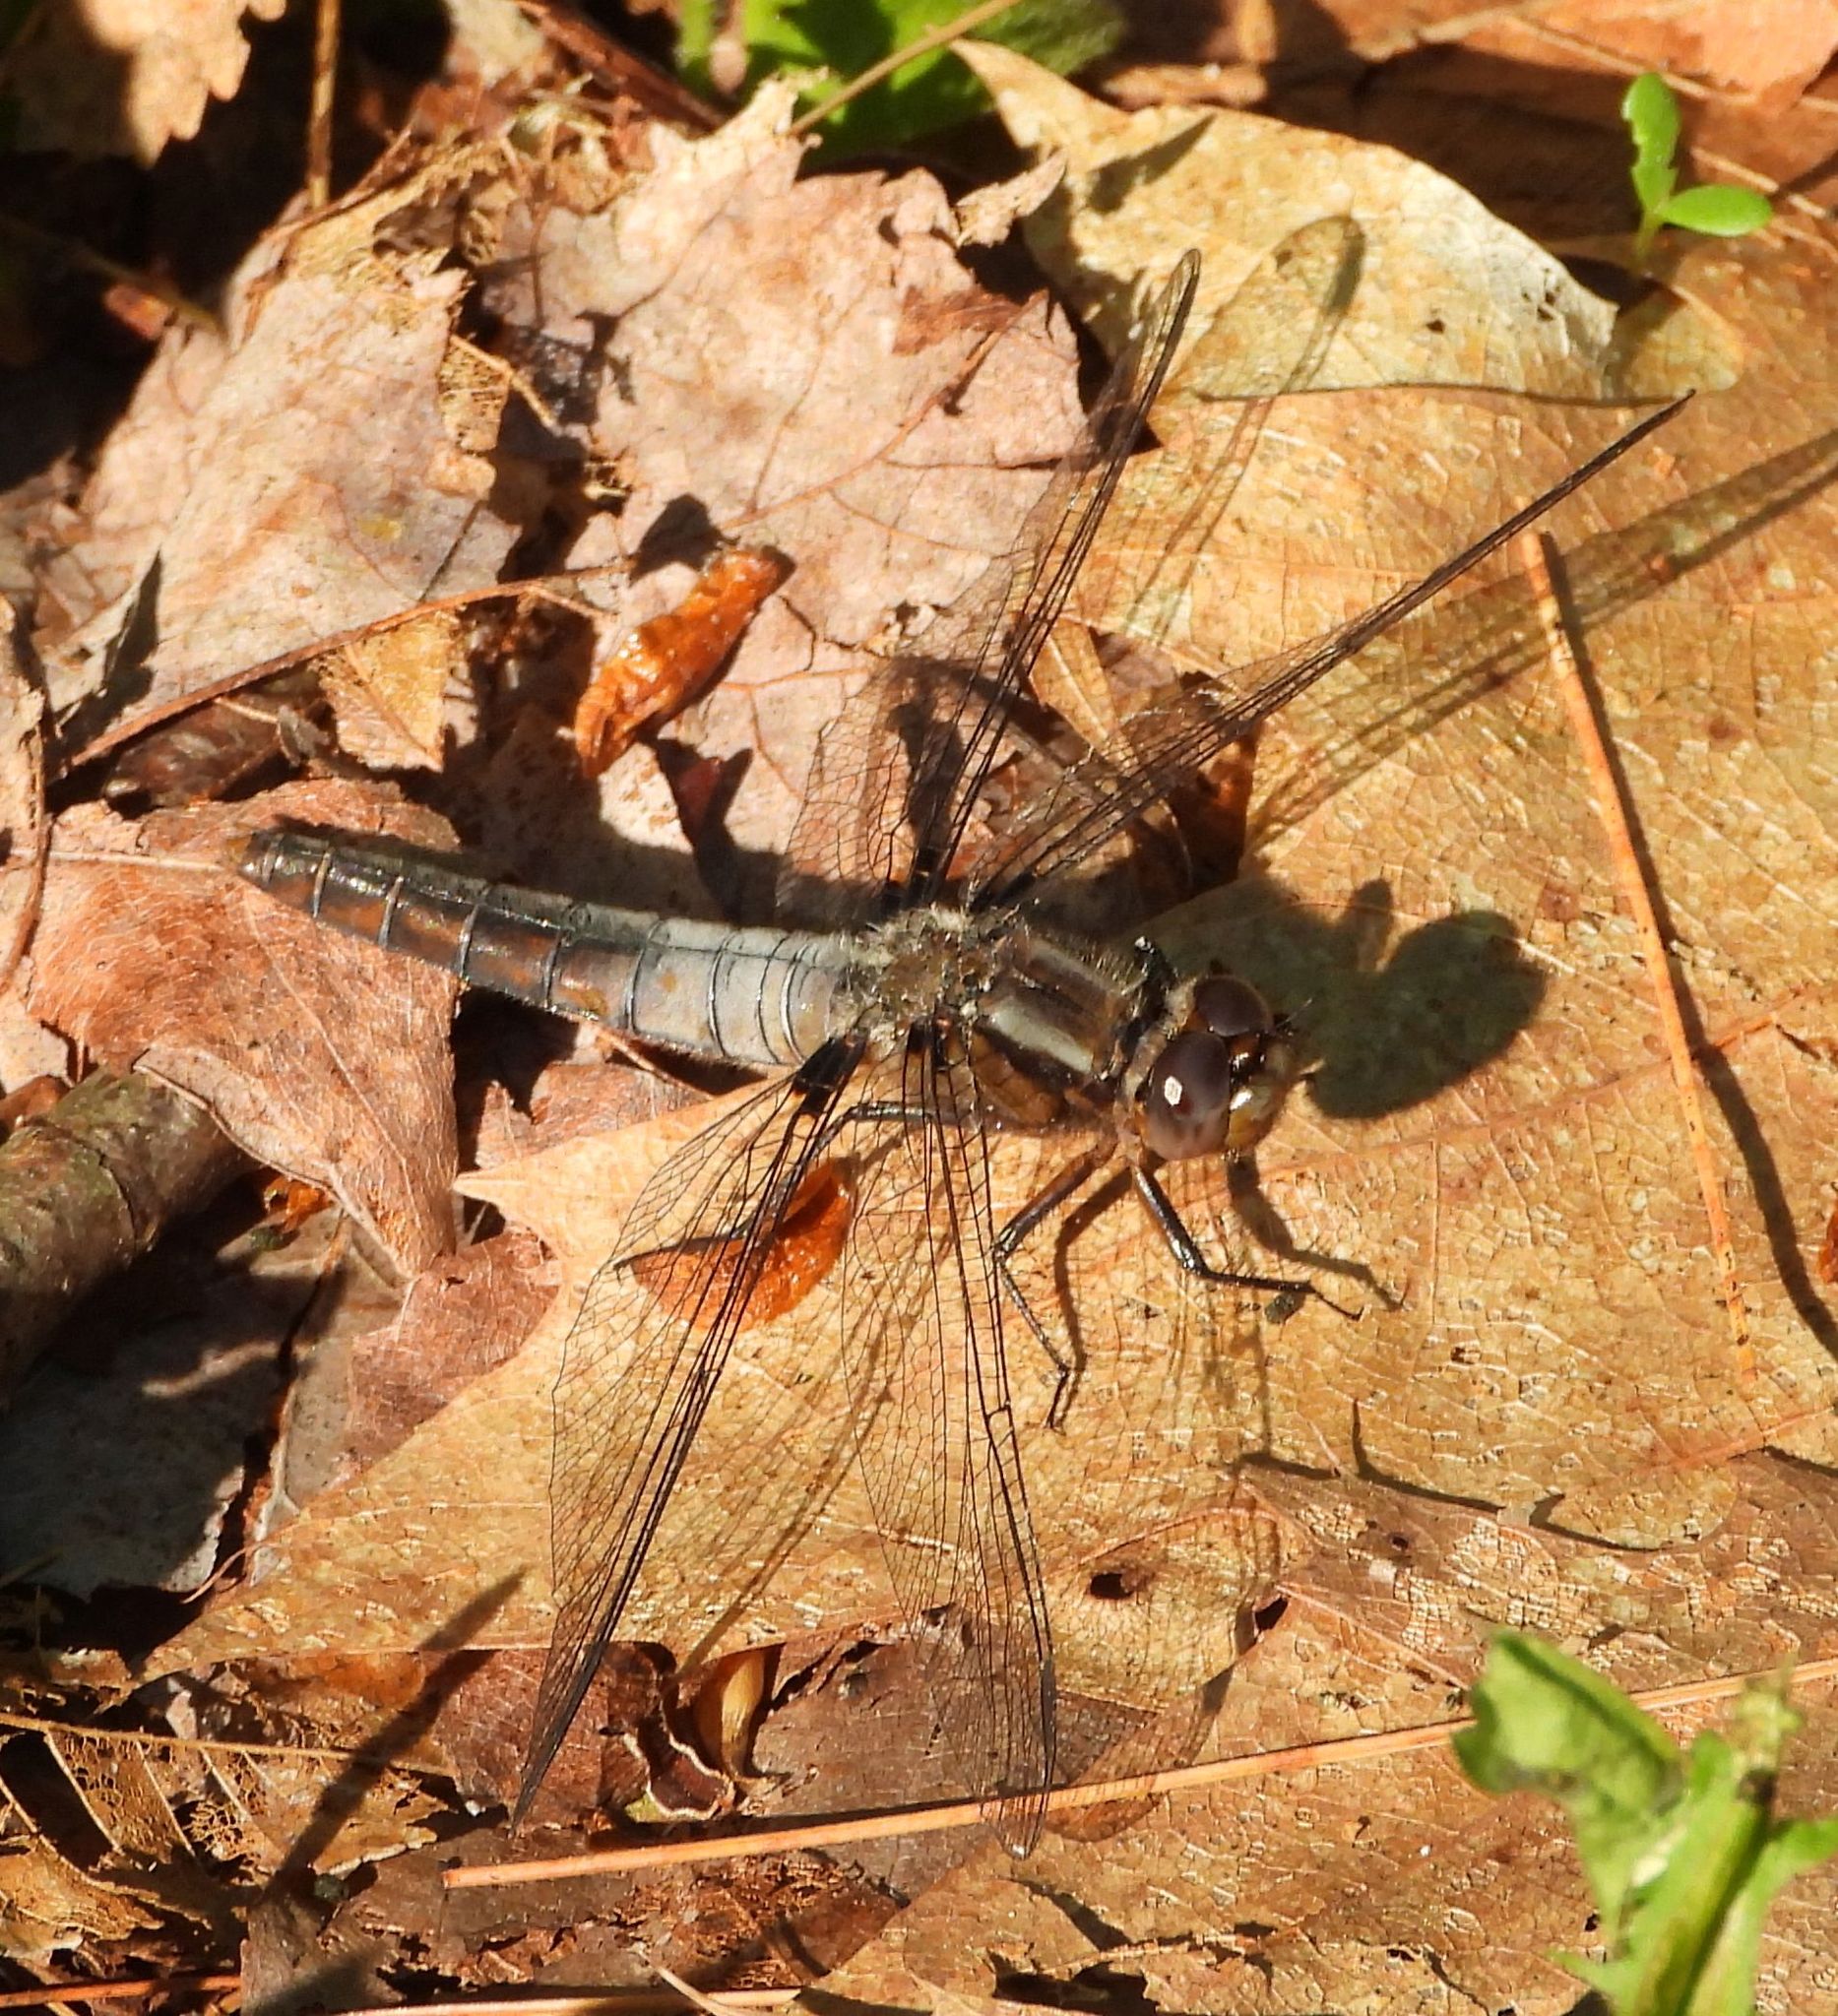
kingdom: Animalia
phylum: Arthropoda
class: Insecta
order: Odonata
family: Libellulidae
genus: Ladona
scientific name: Ladona julia
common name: Chalk-fronted corporal
